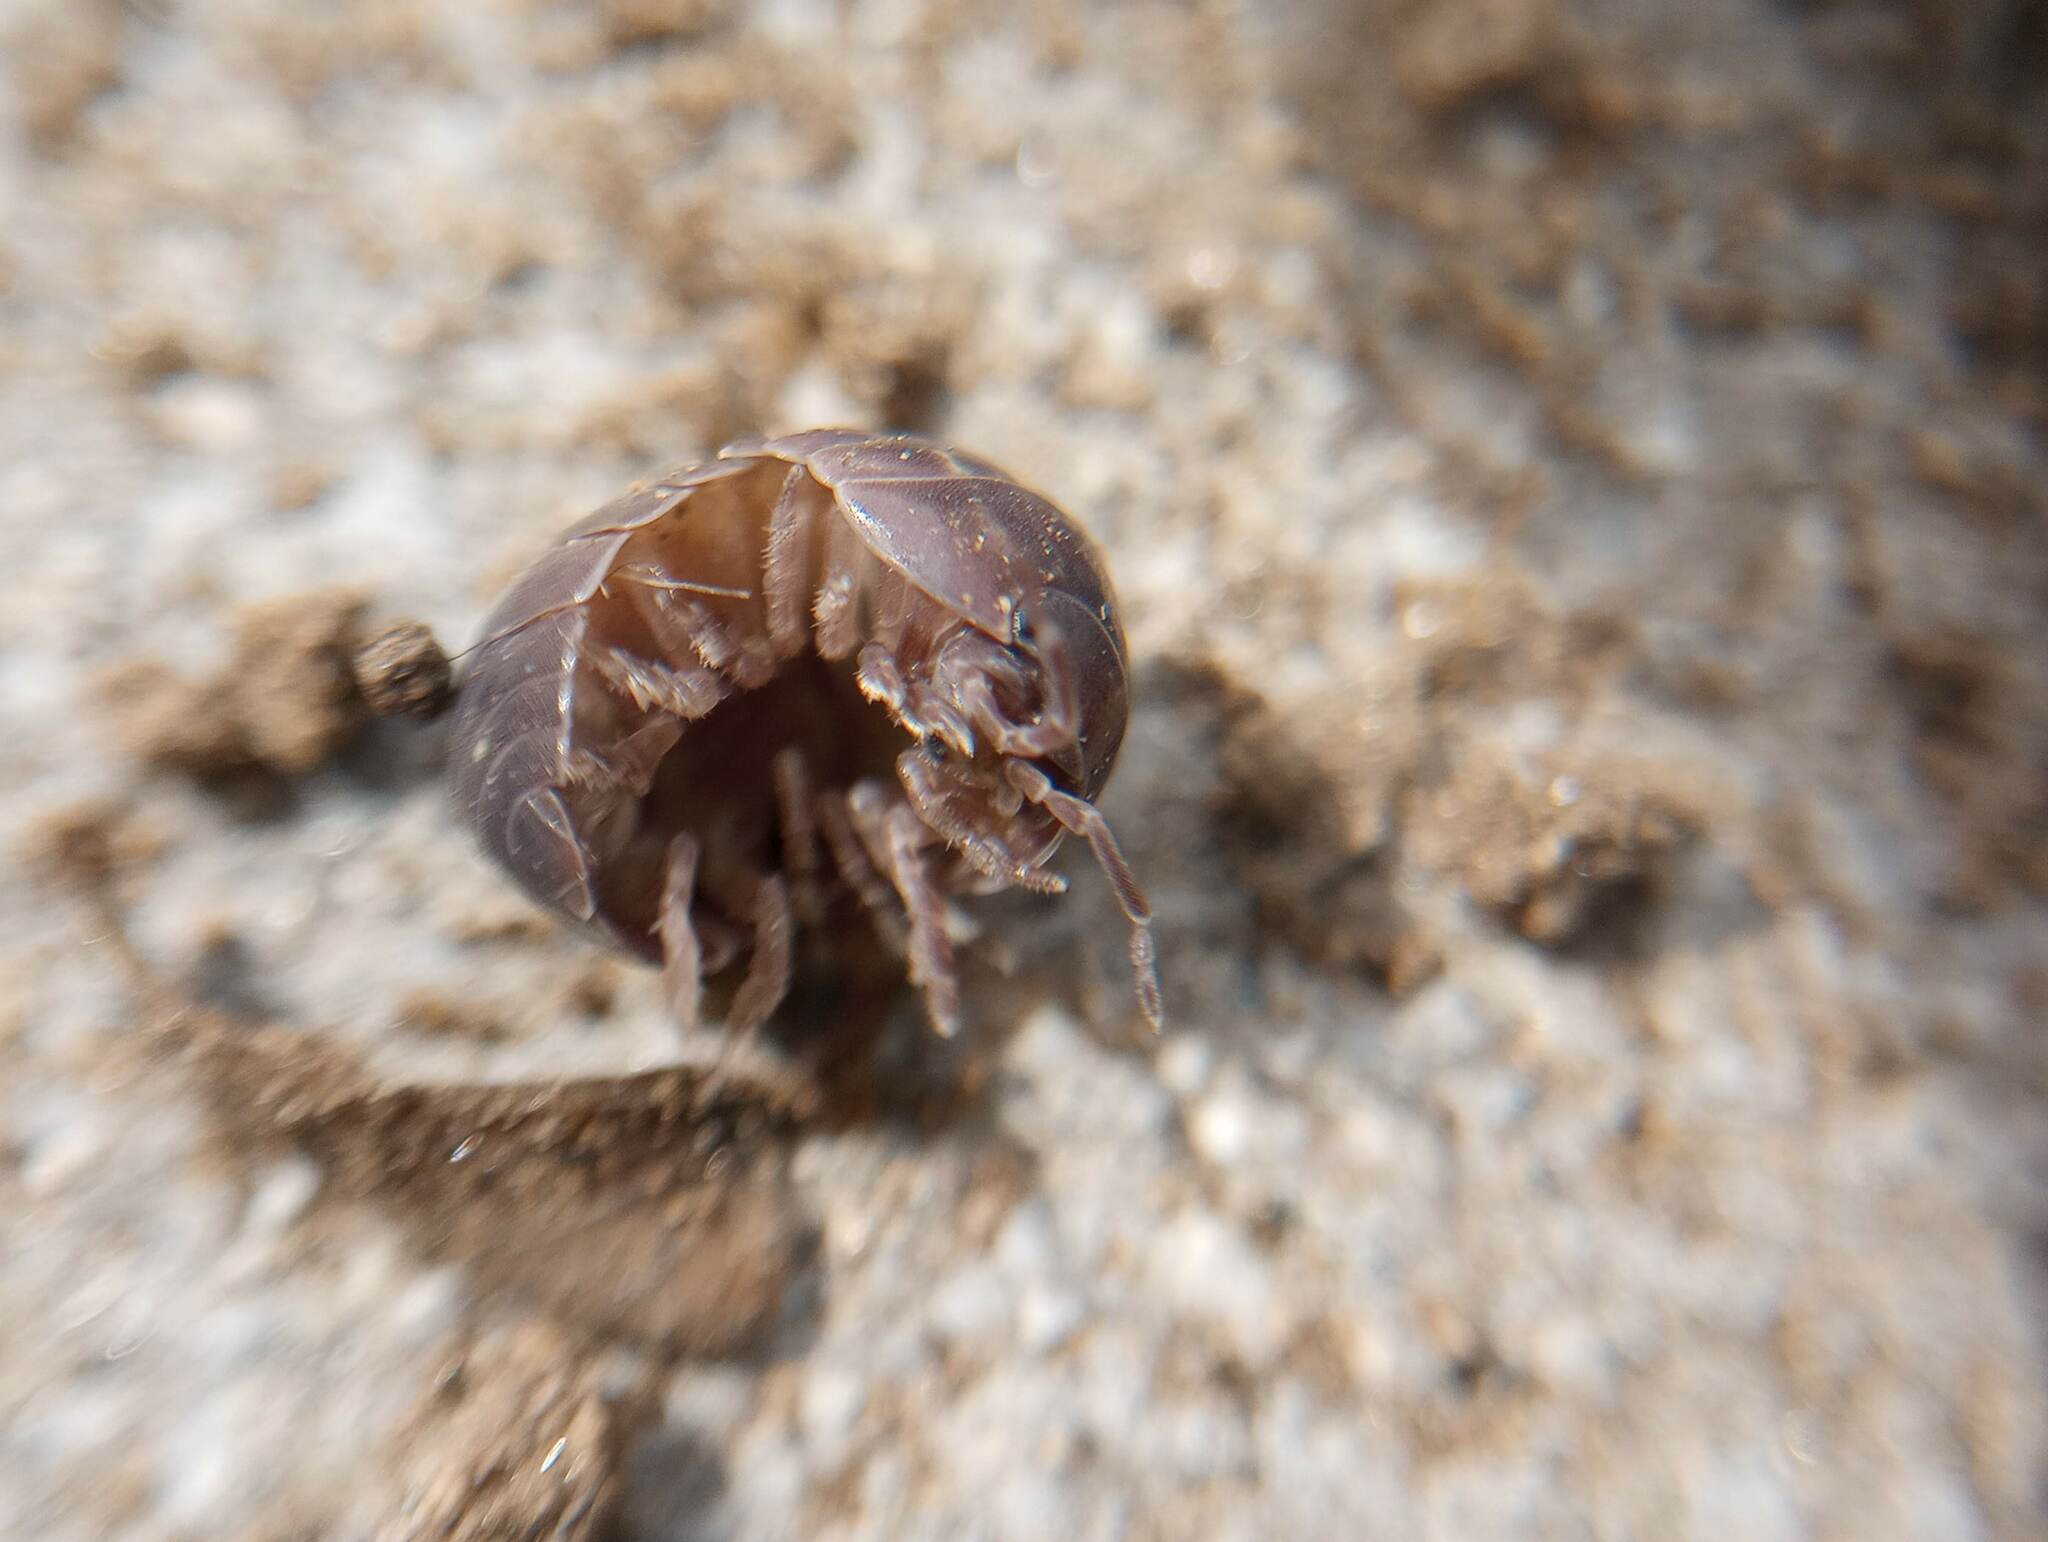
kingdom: Animalia
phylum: Arthropoda
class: Malacostraca
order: Isopoda
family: Armadillidiidae
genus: Armadillidium
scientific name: Armadillidium vulgare
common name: Common pill woodlouse
